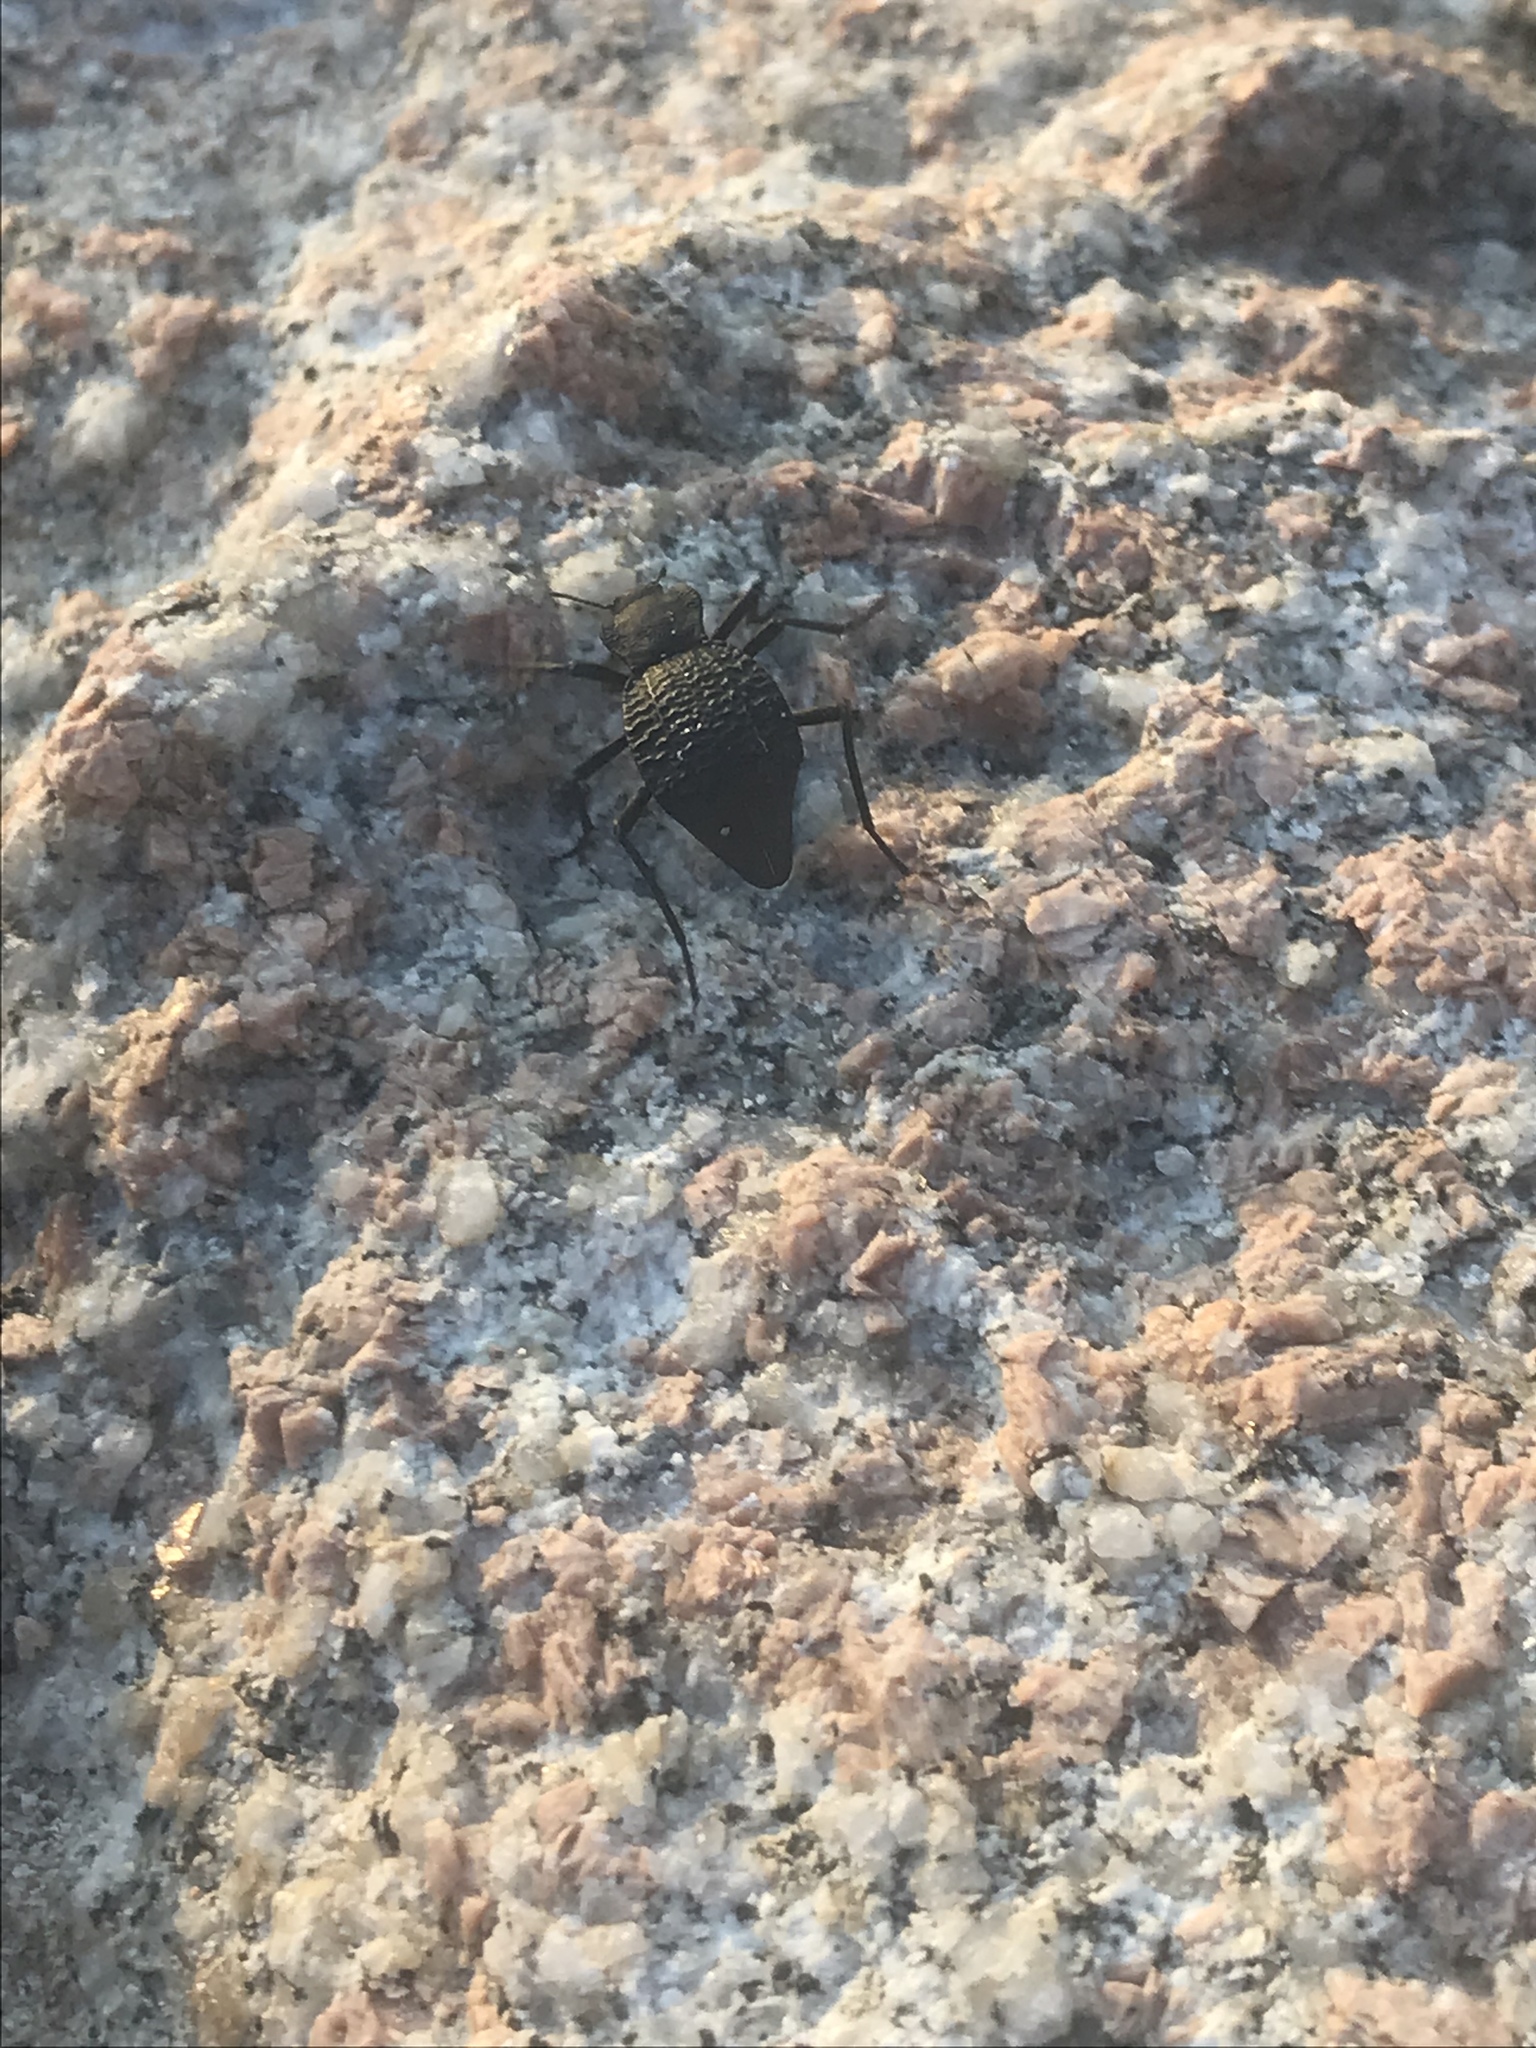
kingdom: Animalia
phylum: Arthropoda
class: Insecta
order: Coleoptera
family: Tenebrionidae
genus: Philolithus
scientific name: Philolithus aegrotus
